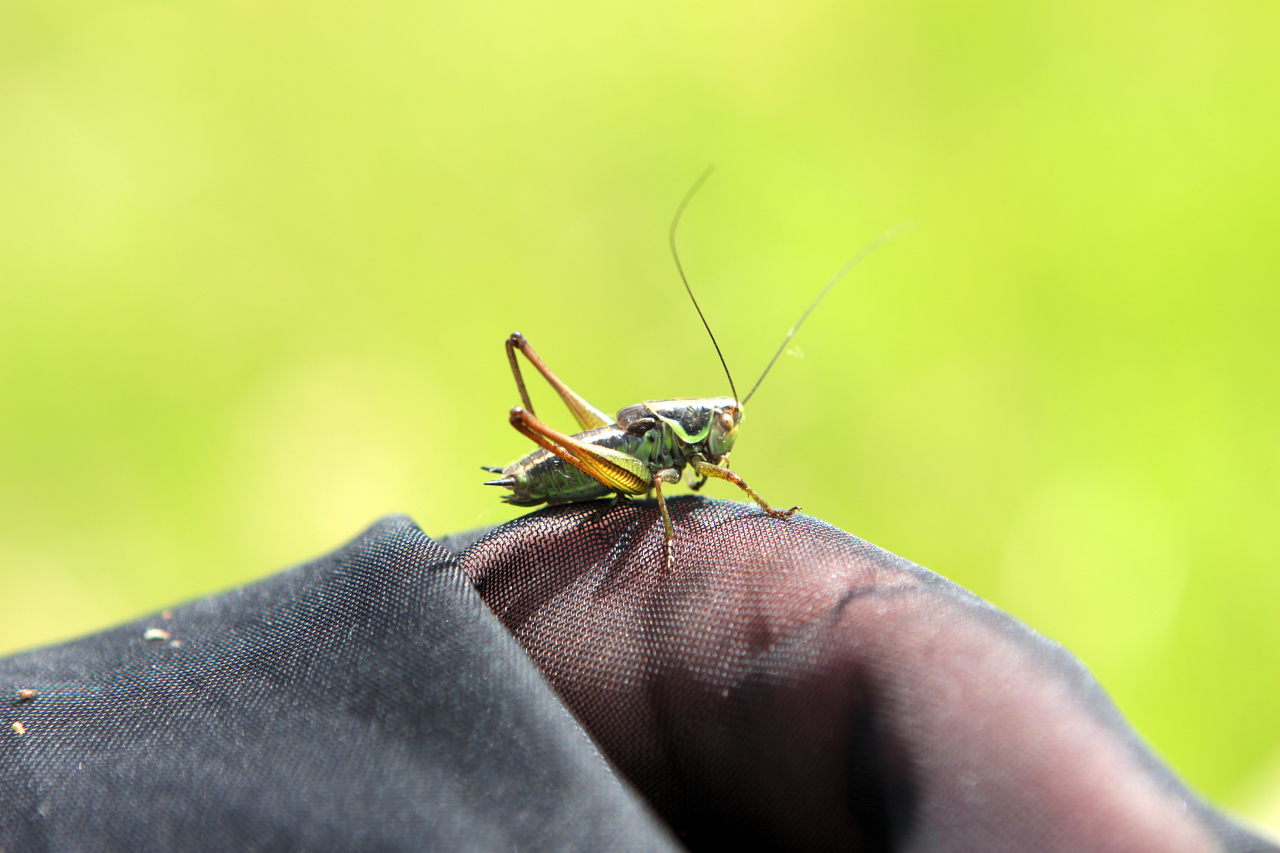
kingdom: Animalia
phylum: Arthropoda
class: Insecta
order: Orthoptera
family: Tettigoniidae
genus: Roeseliana
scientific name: Roeseliana roeselii
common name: Roesel's bush cricket
